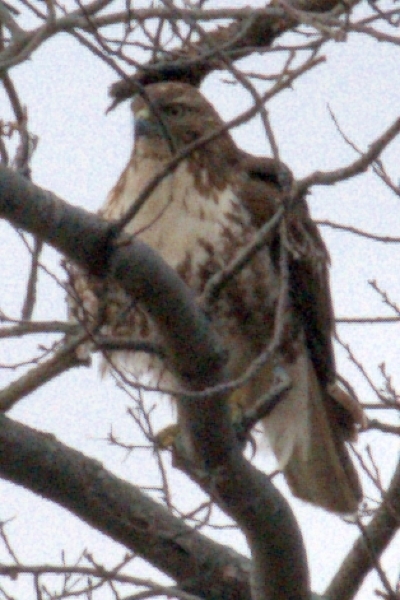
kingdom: Animalia
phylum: Chordata
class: Aves
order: Accipitriformes
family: Accipitridae
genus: Buteo
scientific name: Buteo jamaicensis
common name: Red-tailed hawk
